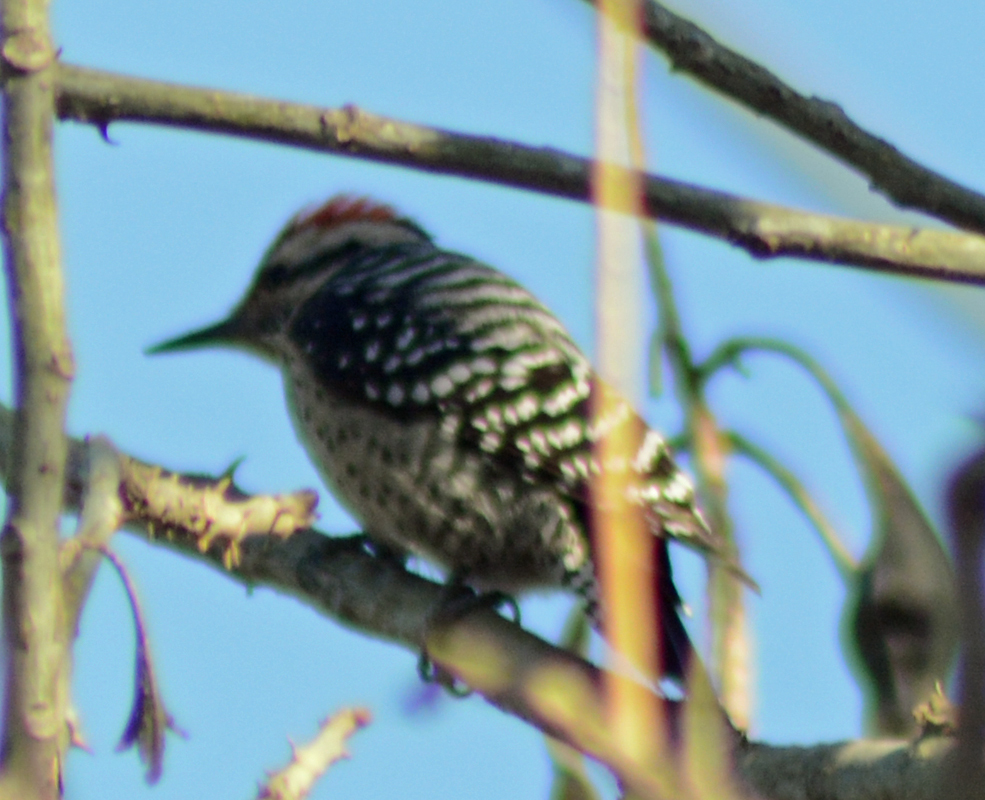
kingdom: Animalia
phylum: Chordata
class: Aves
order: Piciformes
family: Picidae
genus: Dryobates
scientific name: Dryobates scalaris
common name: Ladder-backed woodpecker
